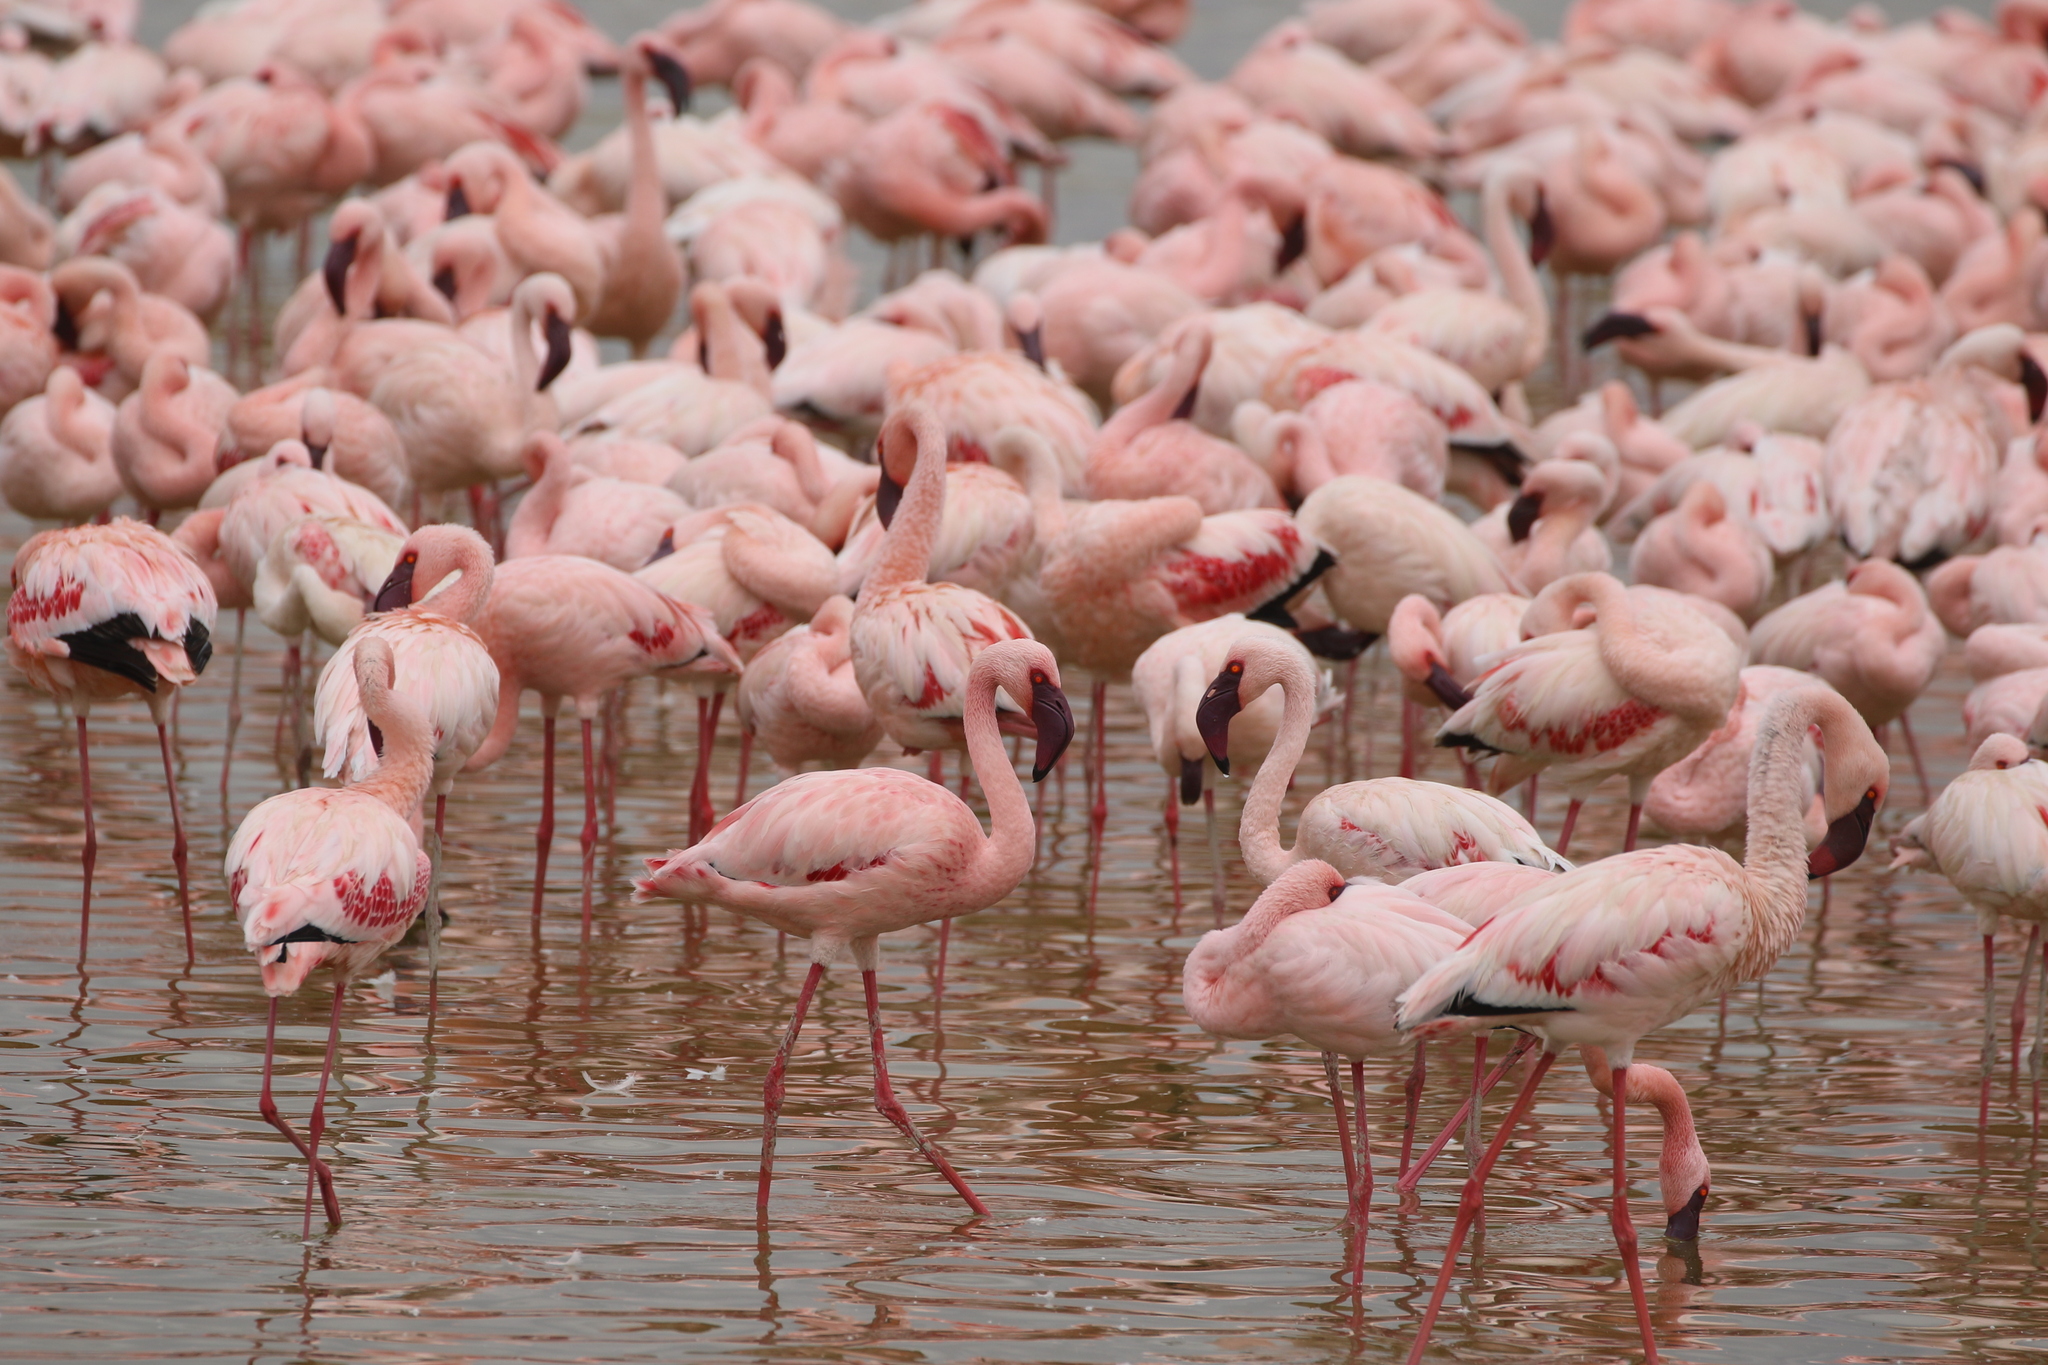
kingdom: Animalia
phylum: Chordata
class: Aves
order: Phoenicopteriformes
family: Phoenicopteridae
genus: Phoeniconaias
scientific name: Phoeniconaias minor
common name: Lesser flamingo
